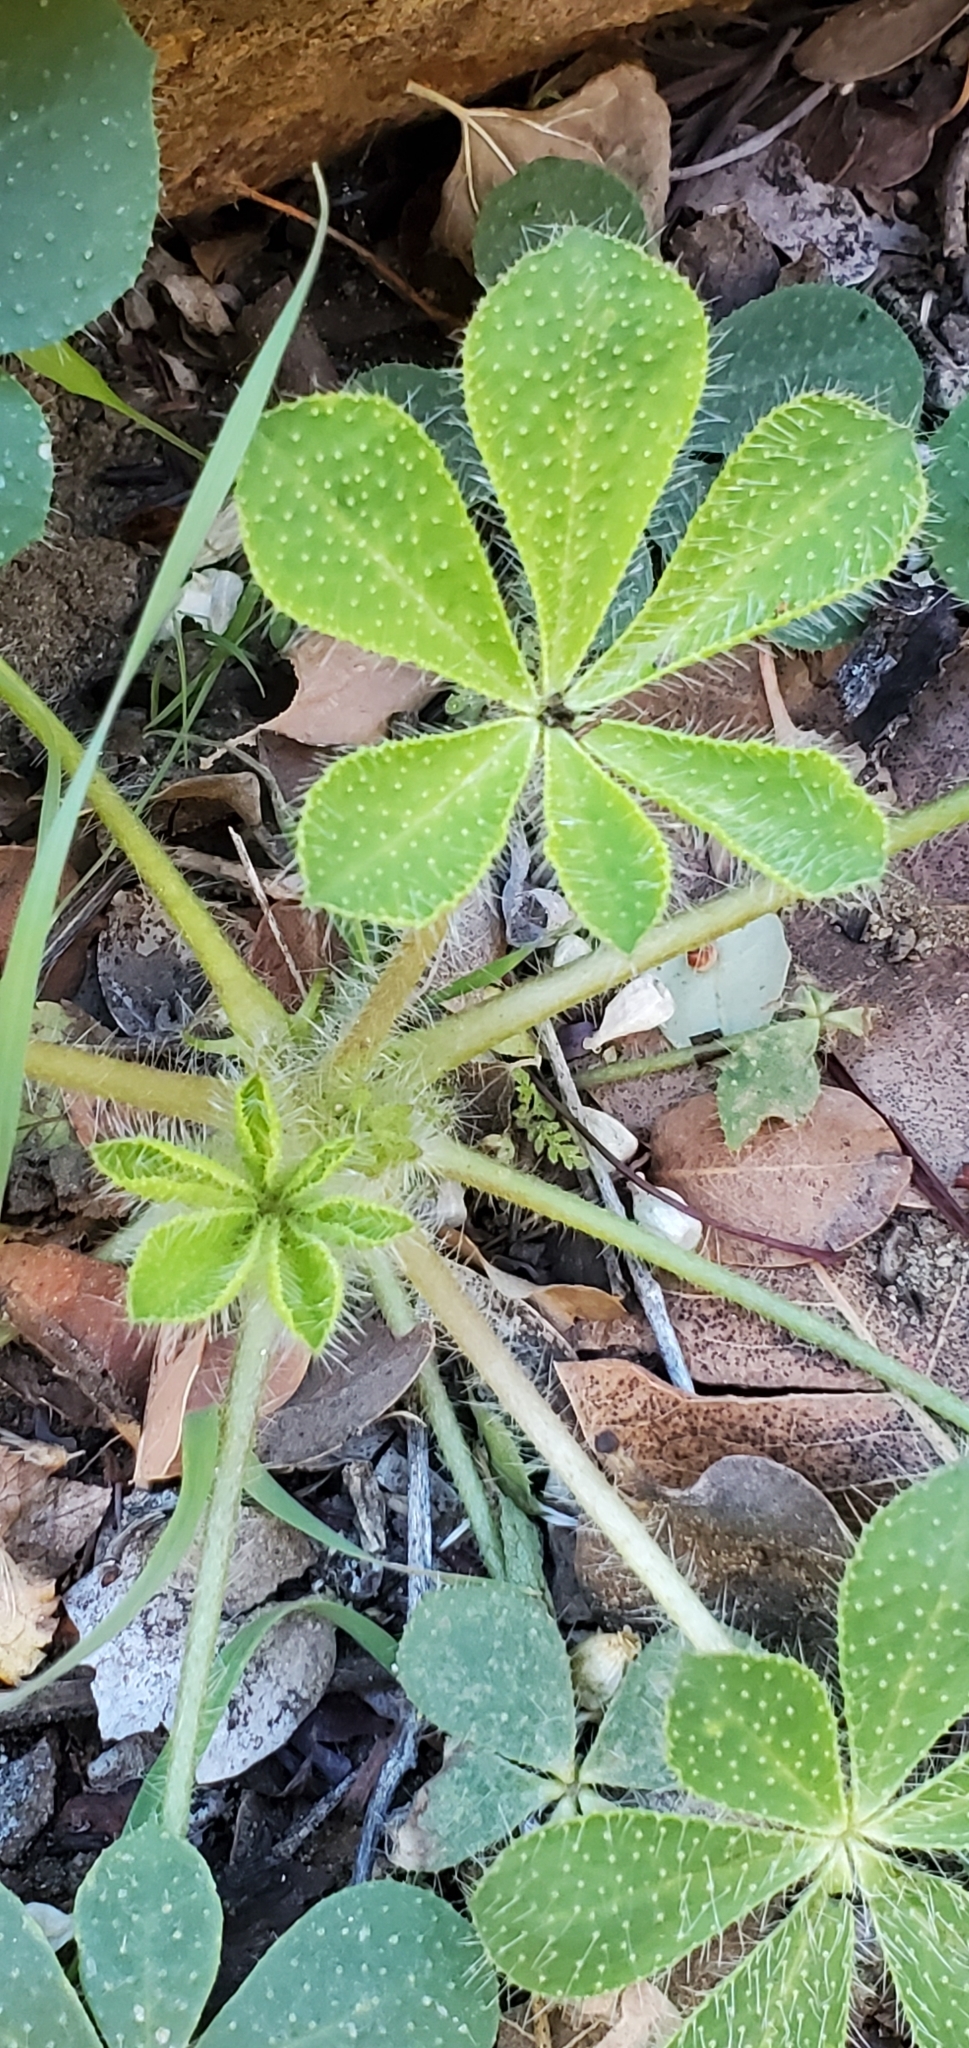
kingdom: Plantae
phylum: Tracheophyta
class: Magnoliopsida
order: Fabales
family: Fabaceae
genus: Lupinus
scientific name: Lupinus hirsutissimus
